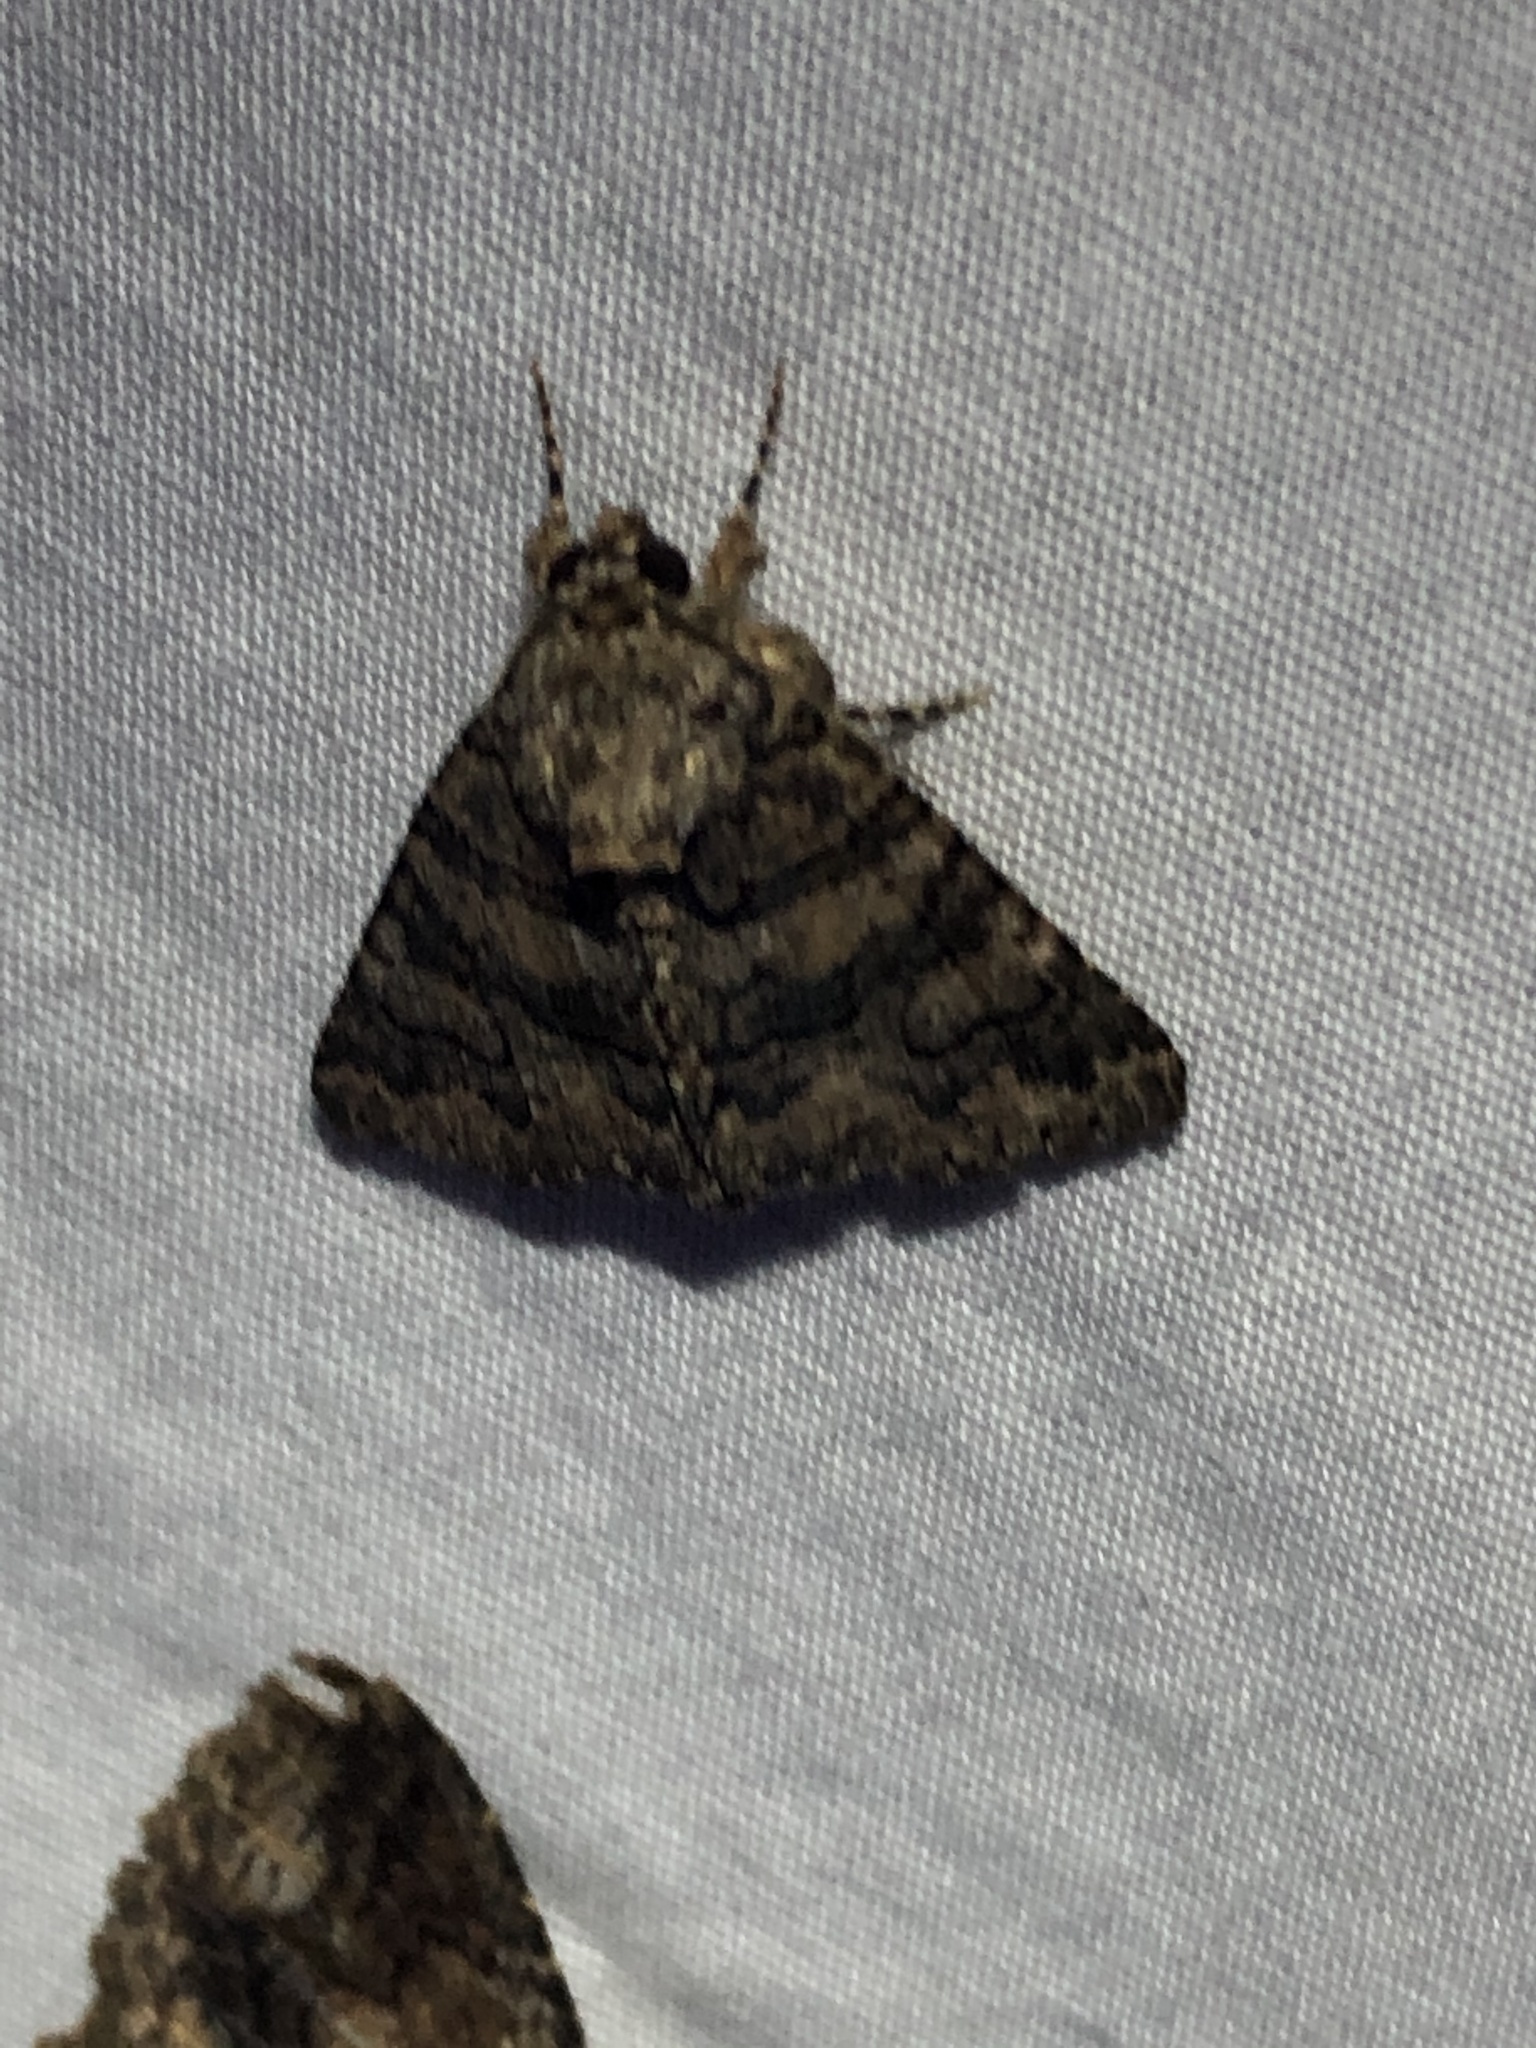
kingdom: Animalia
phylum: Arthropoda
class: Insecta
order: Lepidoptera
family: Erebidae
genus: Elousa
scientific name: Elousa mima
